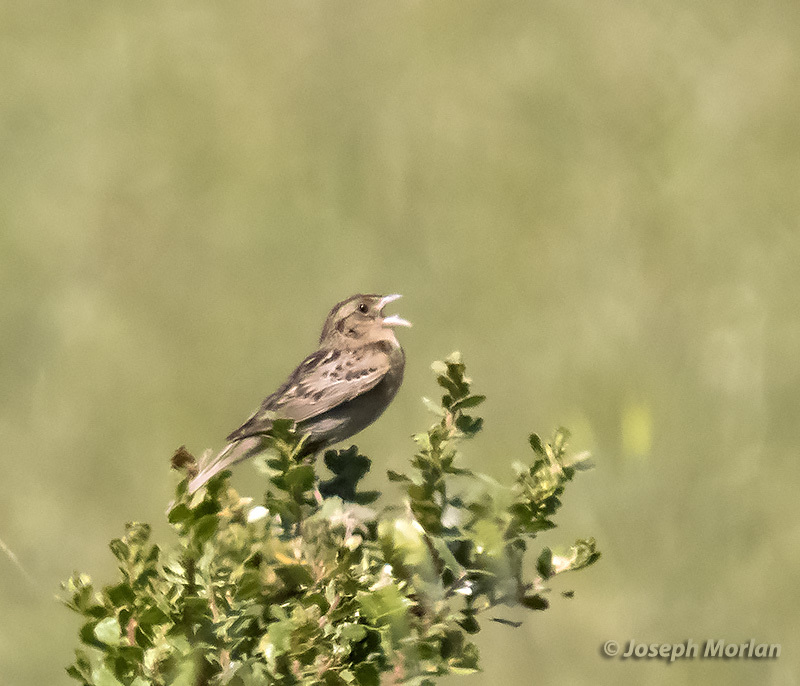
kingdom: Animalia
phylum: Chordata
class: Aves
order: Passeriformes
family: Passerellidae
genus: Ammodramus
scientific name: Ammodramus savannarum
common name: Grasshopper sparrow
